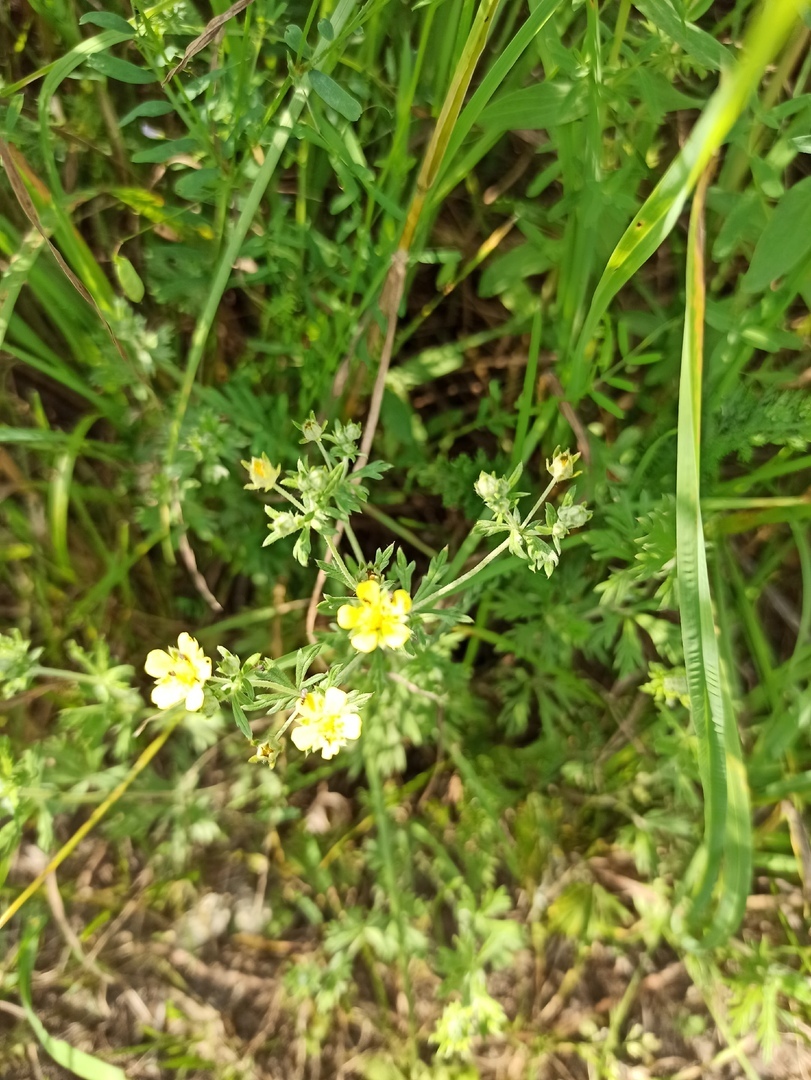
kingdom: Plantae
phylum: Tracheophyta
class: Magnoliopsida
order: Rosales
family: Rosaceae
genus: Potentilla
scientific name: Potentilla argentea
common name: Hoary cinquefoil
